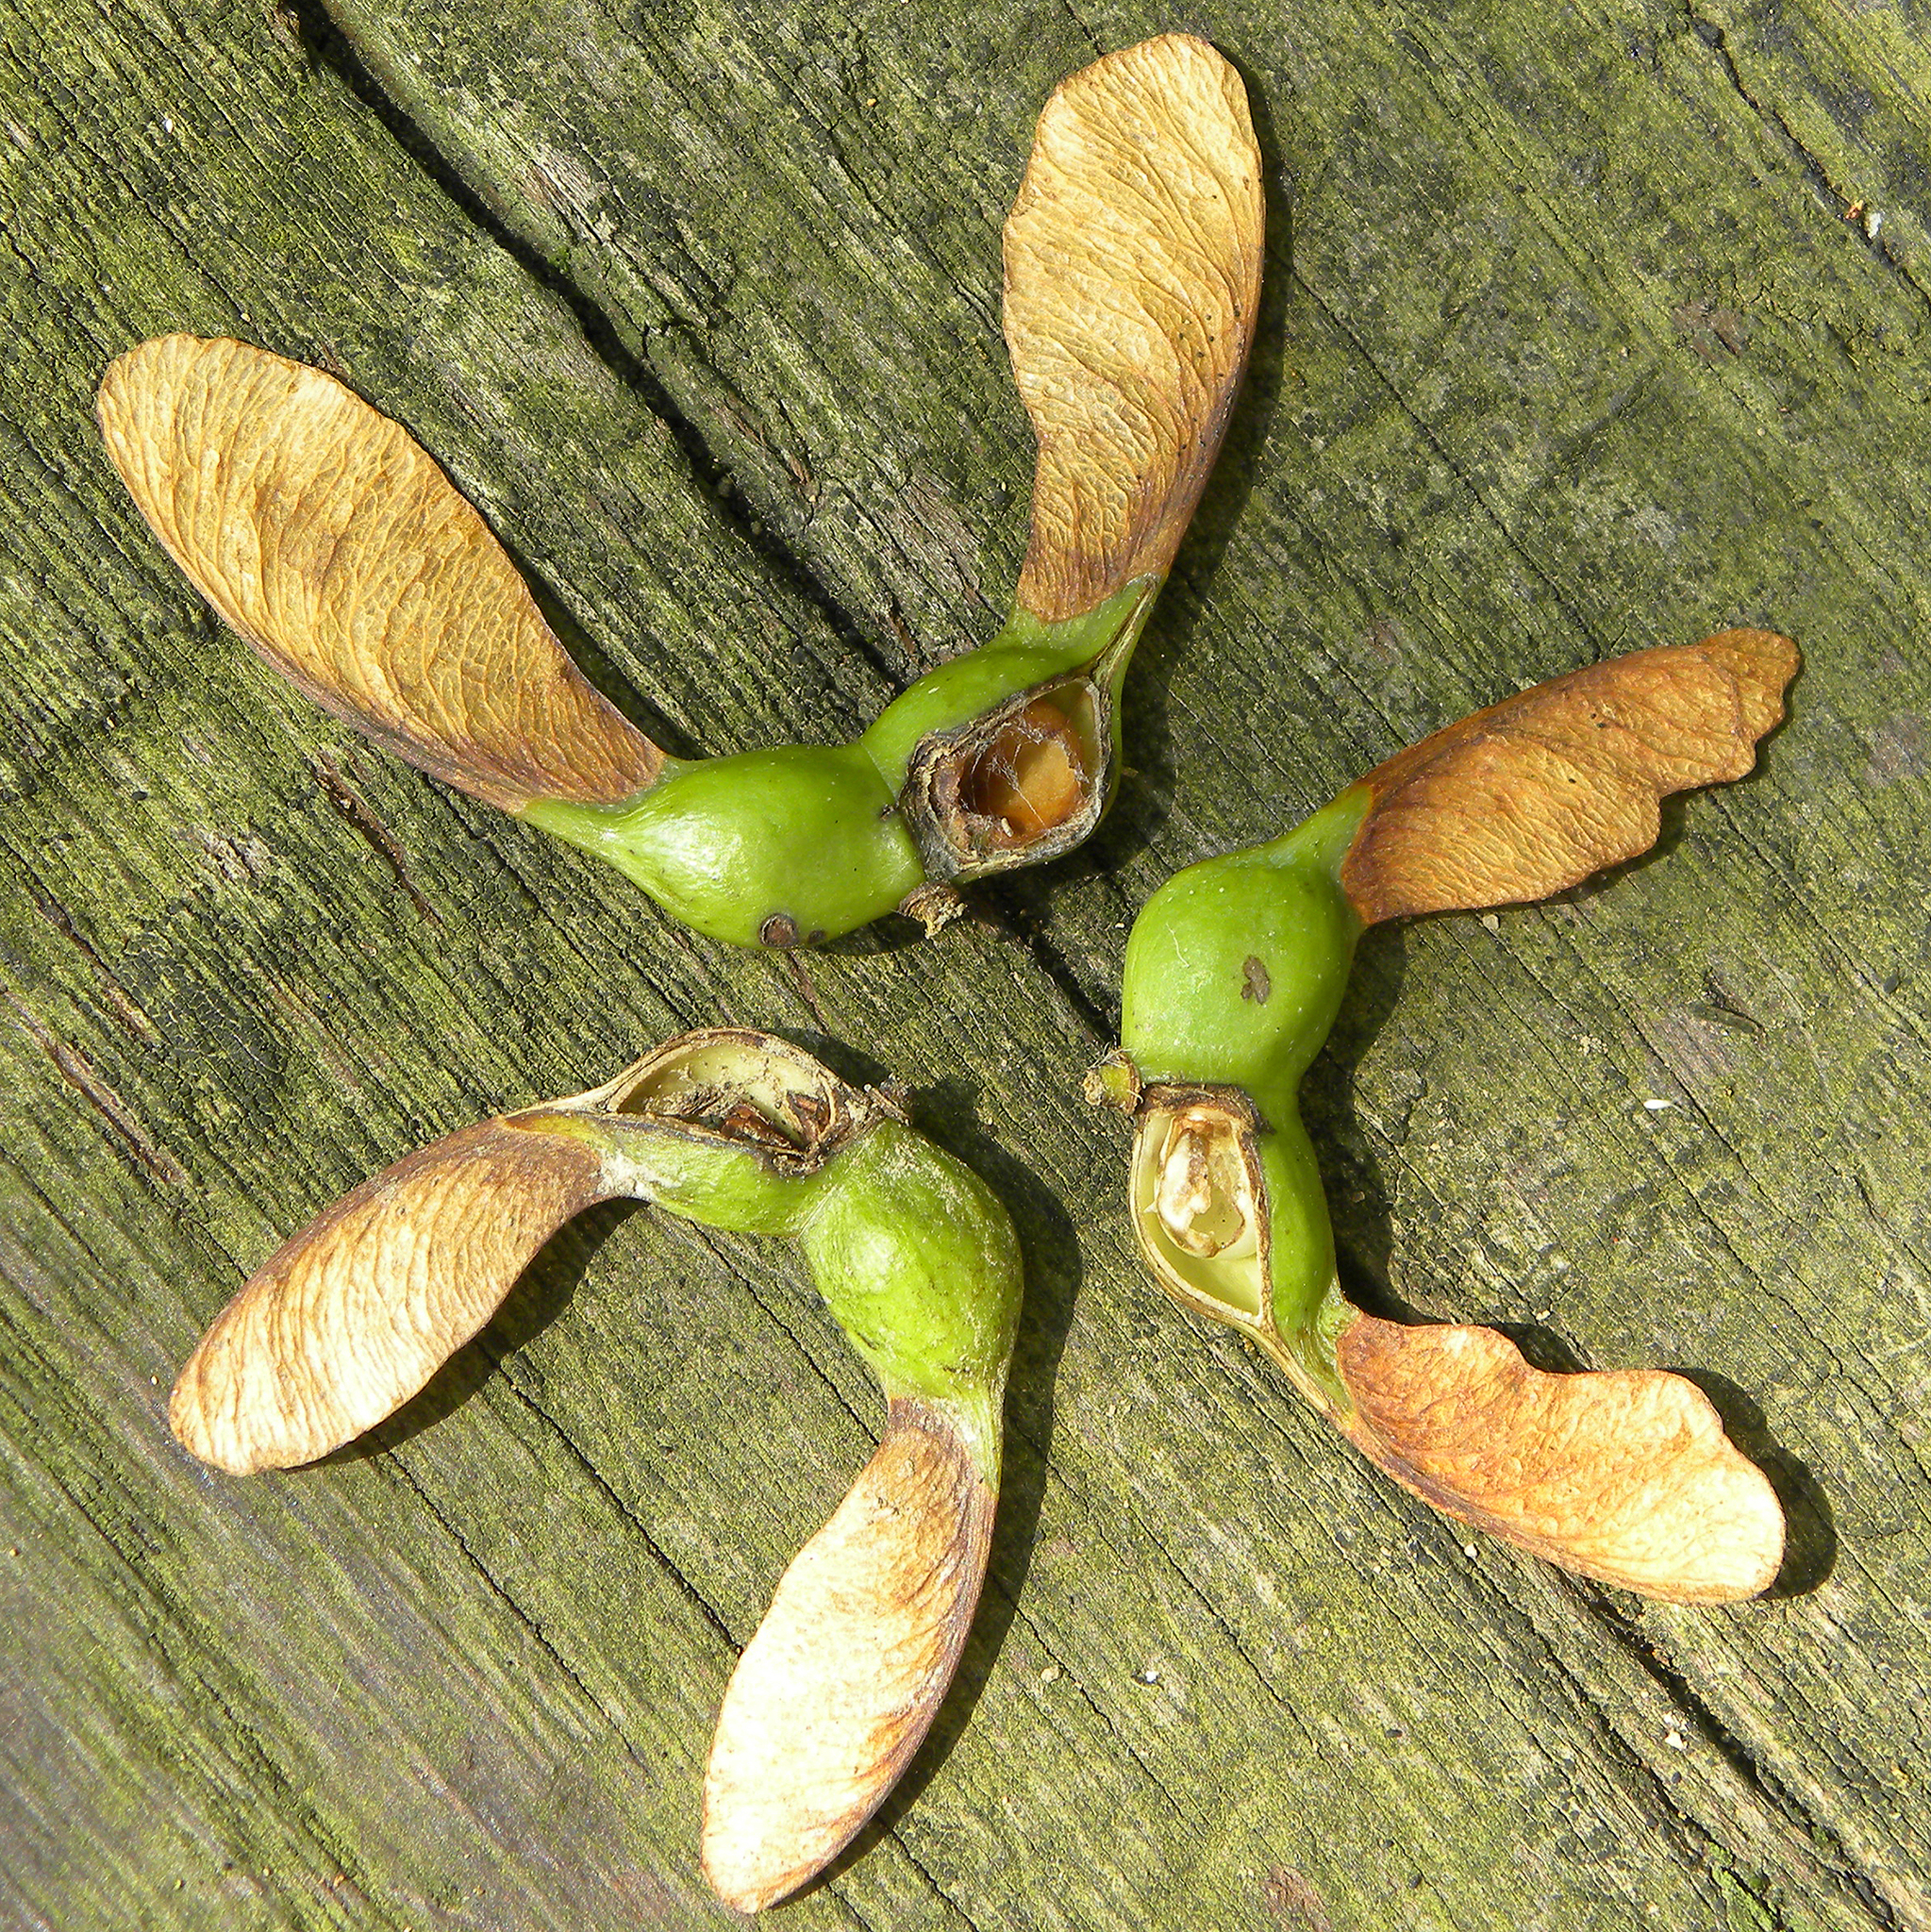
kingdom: Plantae
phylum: Tracheophyta
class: Magnoliopsida
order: Sapindales
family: Sapindaceae
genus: Acer
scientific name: Acer saccharum
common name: Sugar maple
